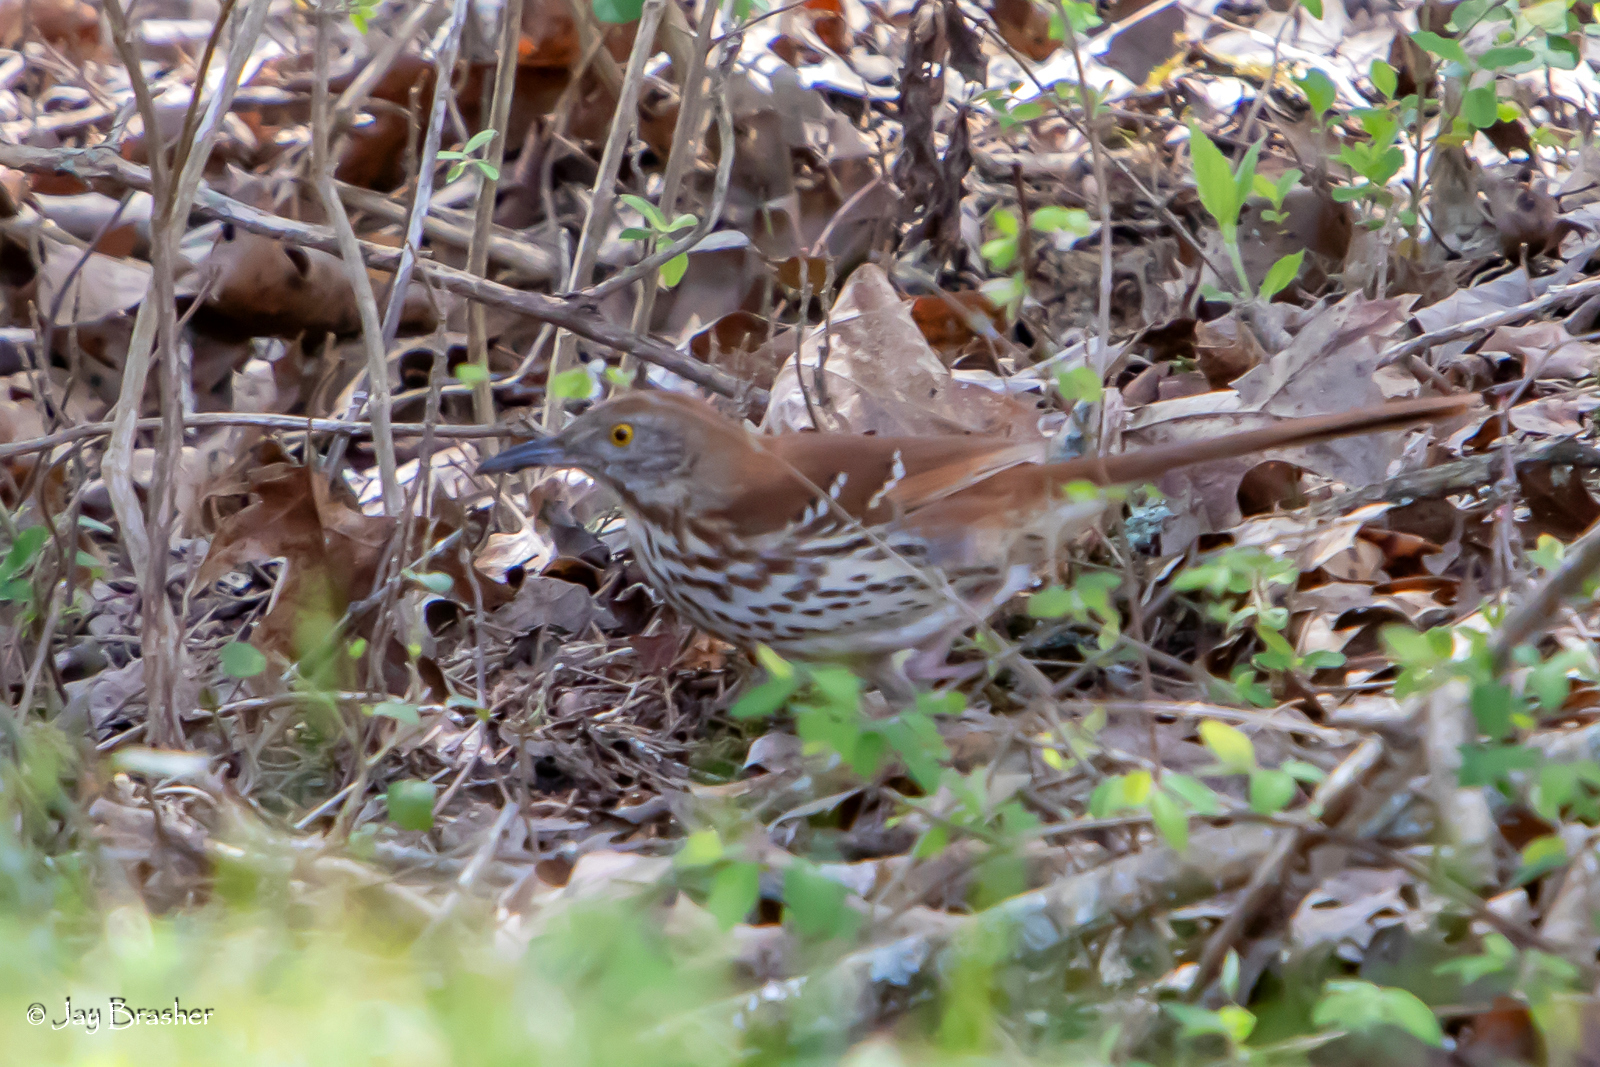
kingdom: Animalia
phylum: Chordata
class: Aves
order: Passeriformes
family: Mimidae
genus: Toxostoma
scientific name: Toxostoma rufum
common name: Brown thrasher
